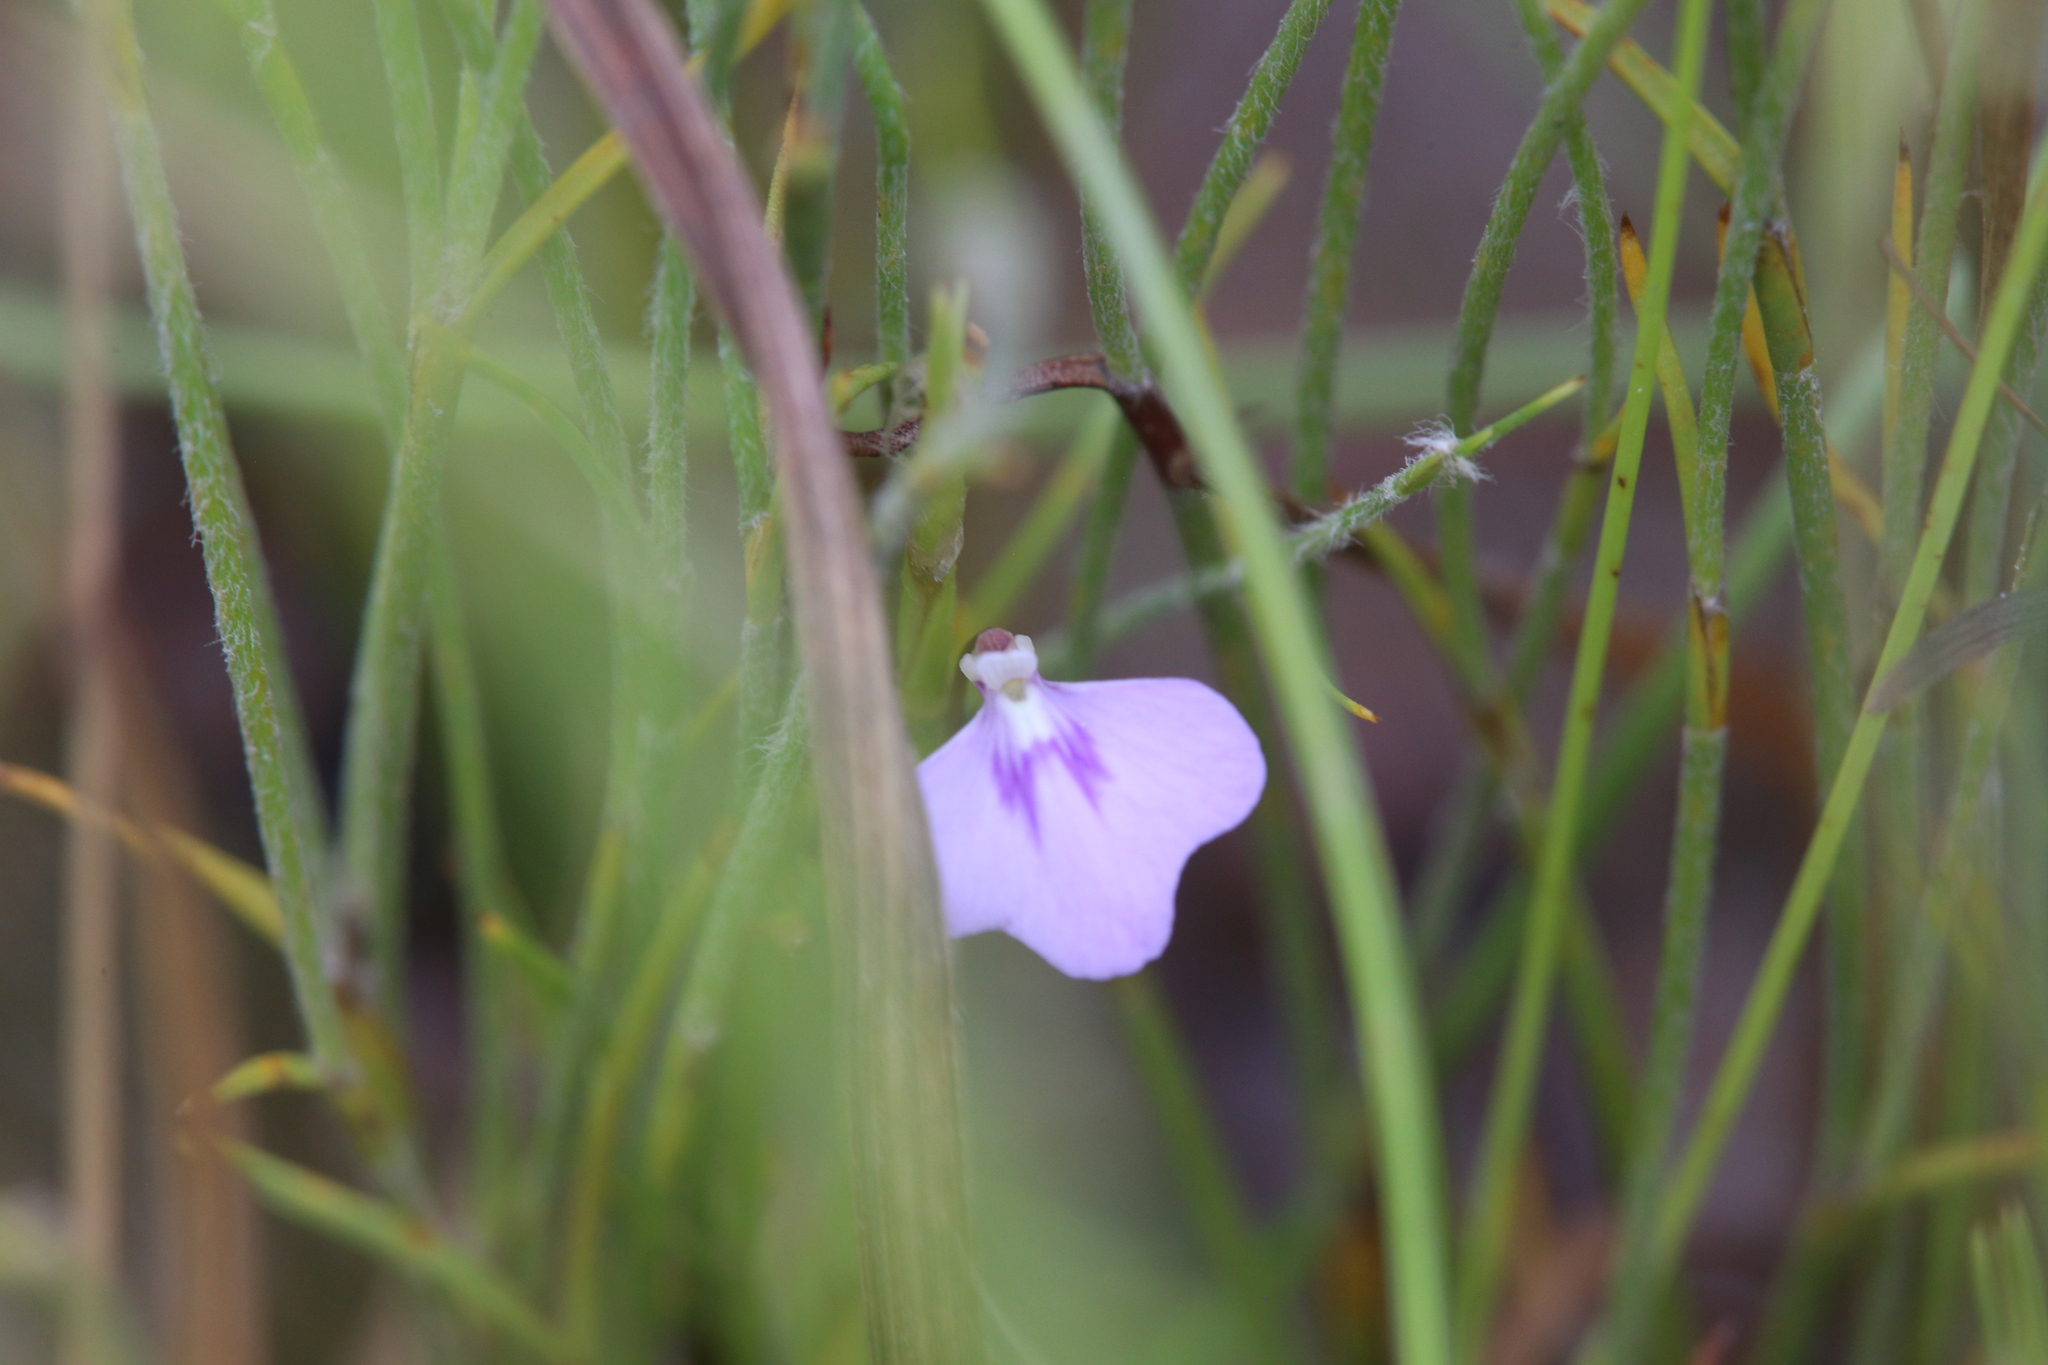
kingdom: Plantae
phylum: Tracheophyta
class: Magnoliopsida
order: Lamiales
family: Lentibulariaceae
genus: Utricularia
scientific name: Utricularia leptorhyncha
